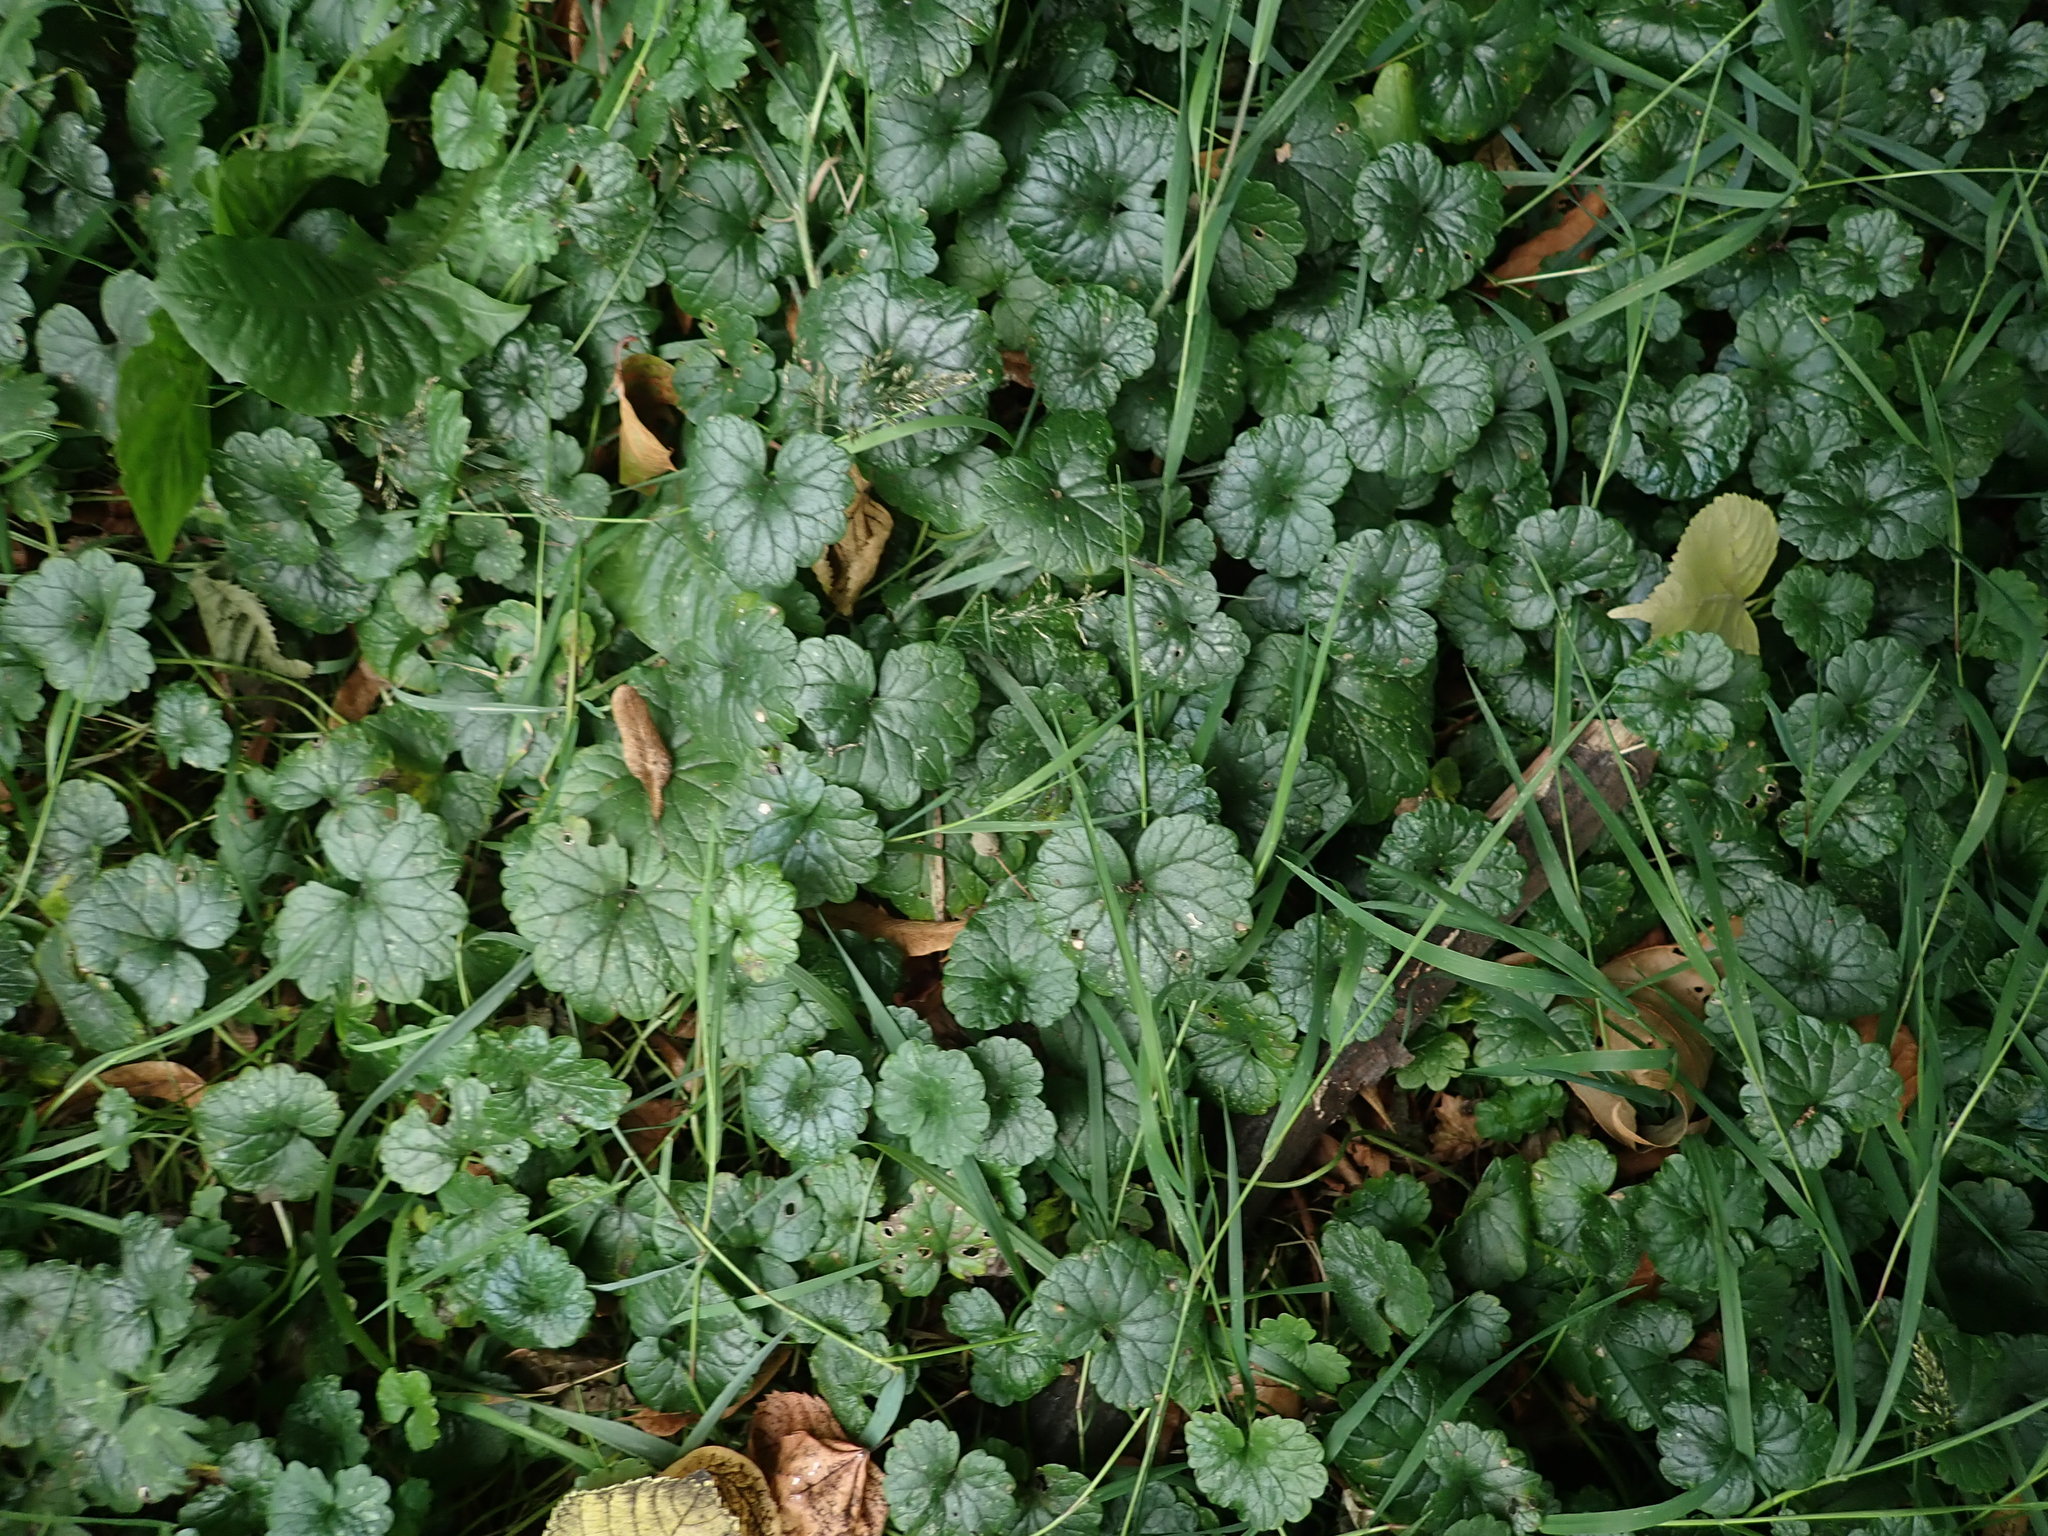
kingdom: Plantae
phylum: Tracheophyta
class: Magnoliopsida
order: Lamiales
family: Lamiaceae
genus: Glechoma
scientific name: Glechoma hederacea
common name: Ground ivy
